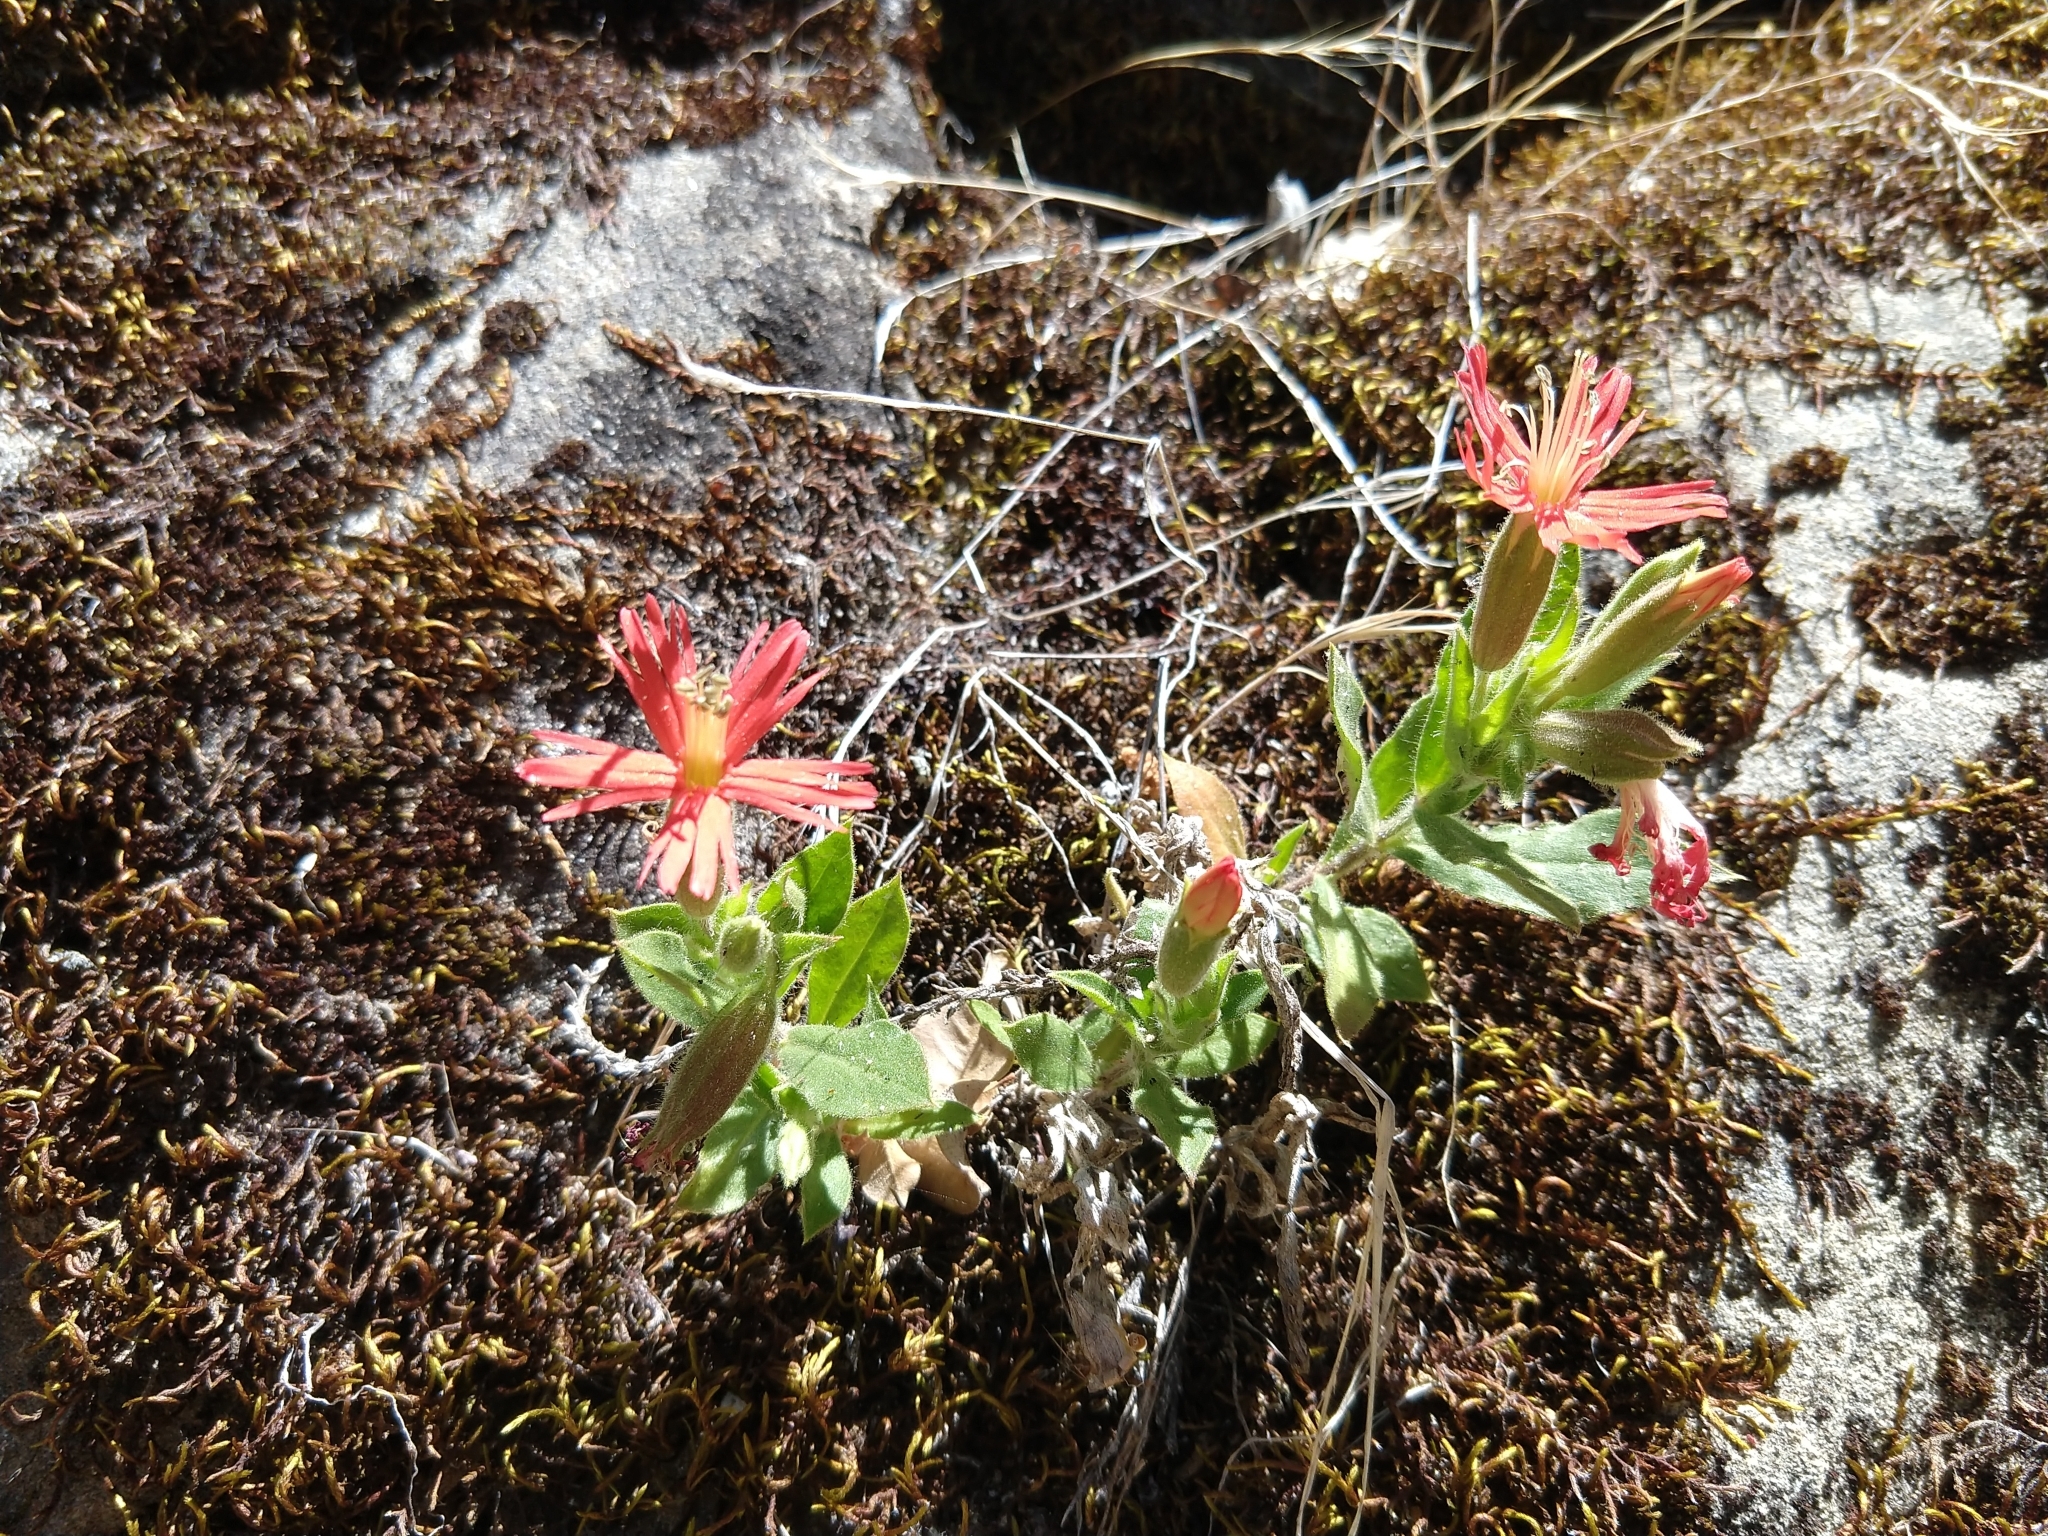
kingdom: Plantae
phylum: Tracheophyta
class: Magnoliopsida
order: Caryophyllales
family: Caryophyllaceae
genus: Silene
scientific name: Silene laciniata
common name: Indian-pink
